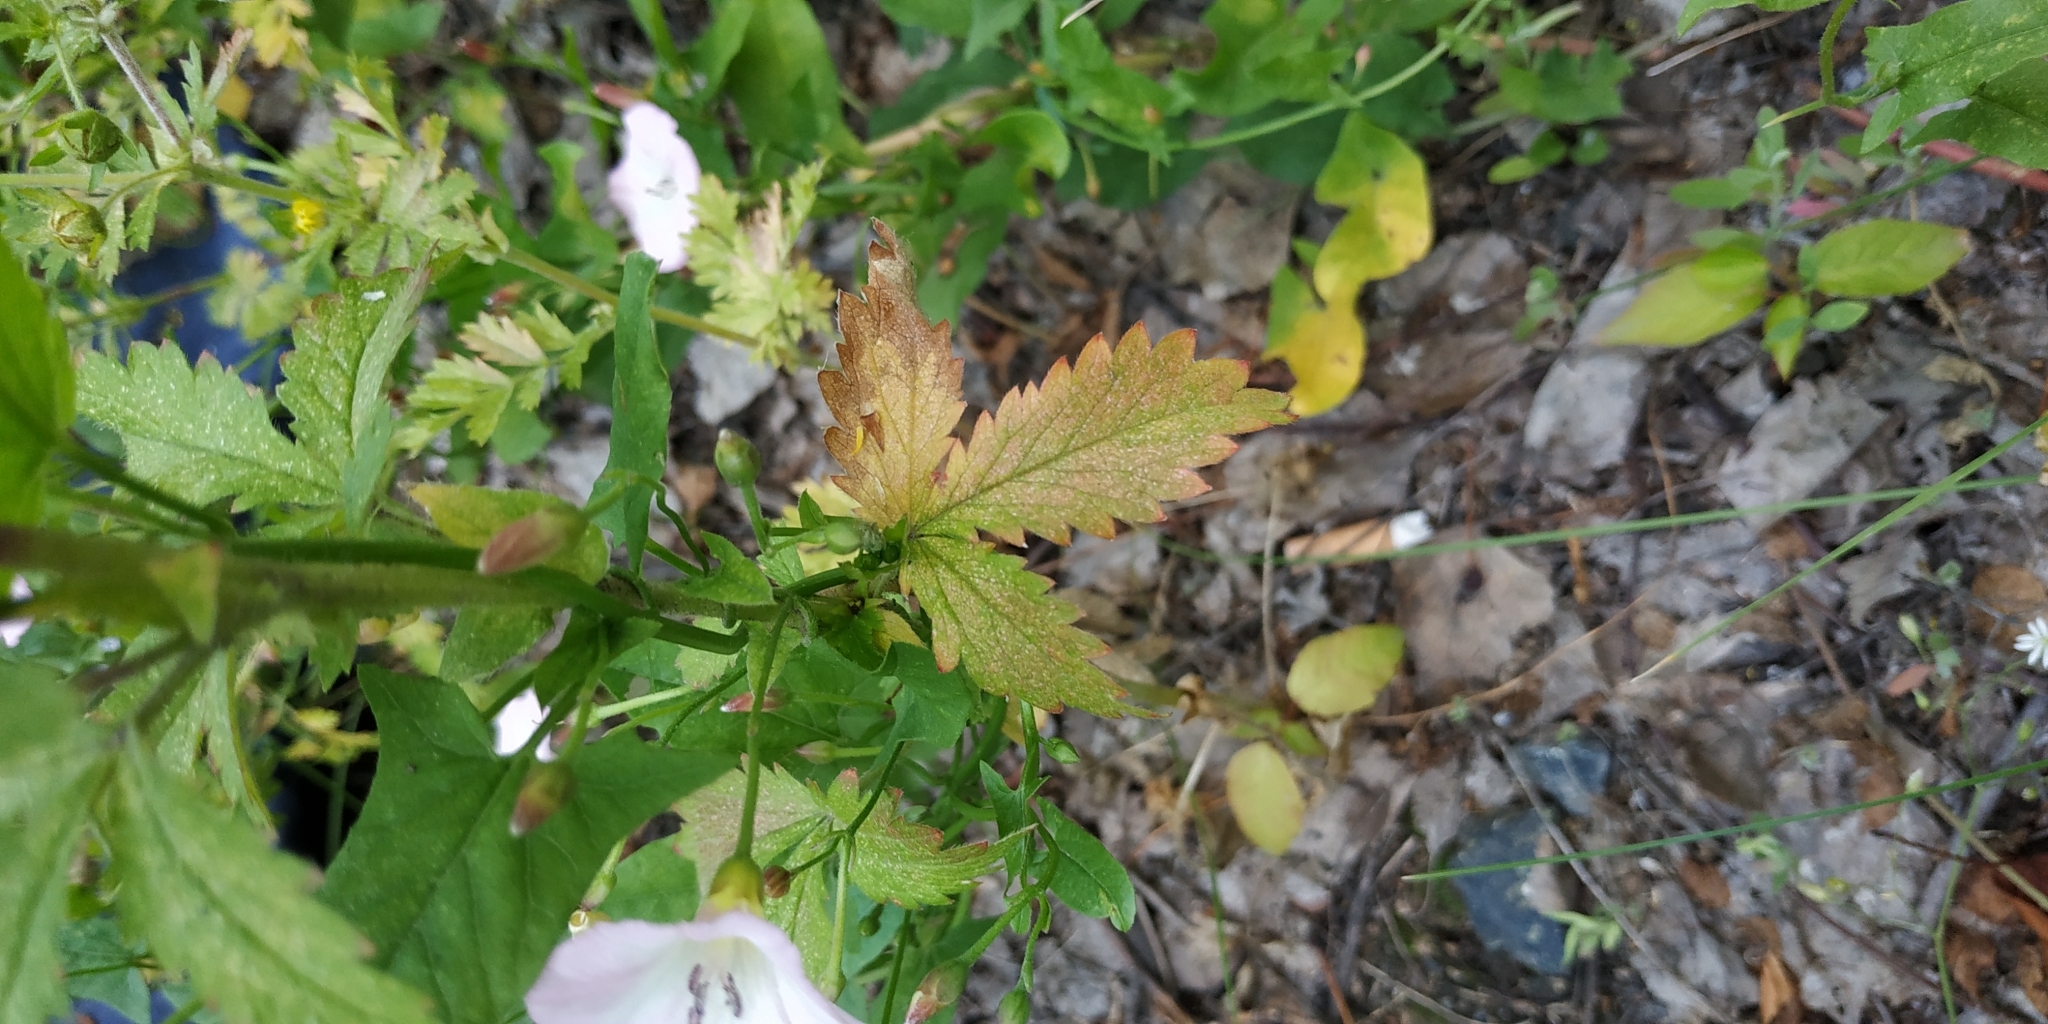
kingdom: Plantae
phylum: Tracheophyta
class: Magnoliopsida
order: Rosales
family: Rosaceae
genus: Potentilla
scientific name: Potentilla norvegica
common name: Ternate-leaved cinquefoil
